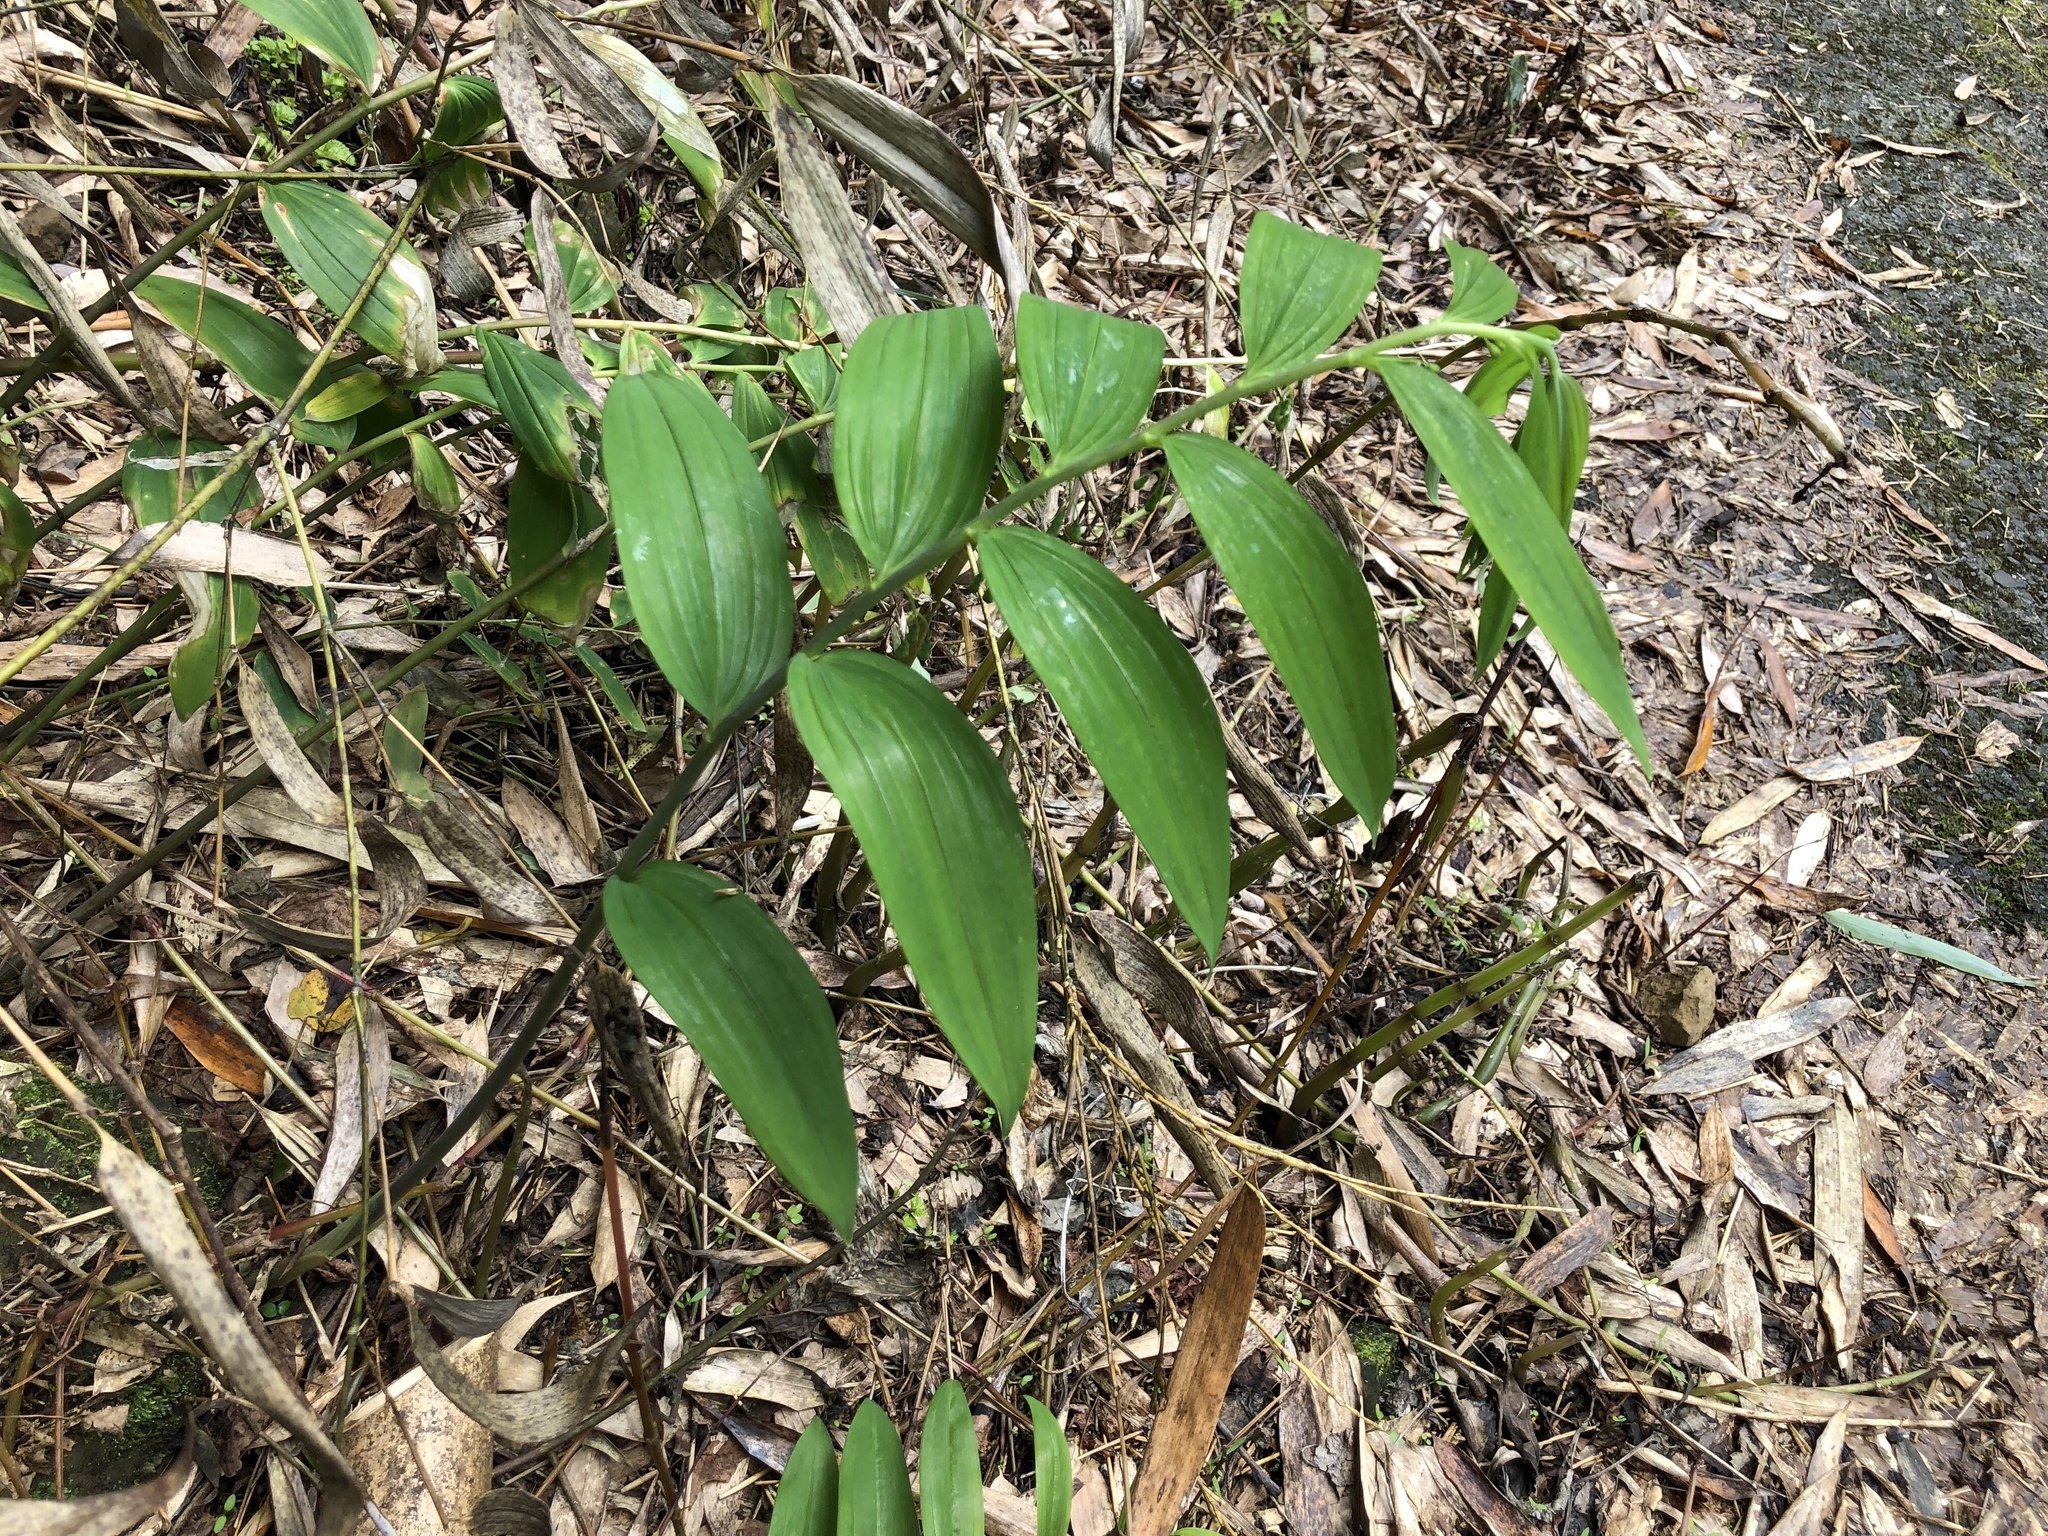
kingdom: Plantae
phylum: Tracheophyta
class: Liliopsida
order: Asparagales
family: Asparagaceae
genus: Polygonatum
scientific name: Polygonatum arisanense
